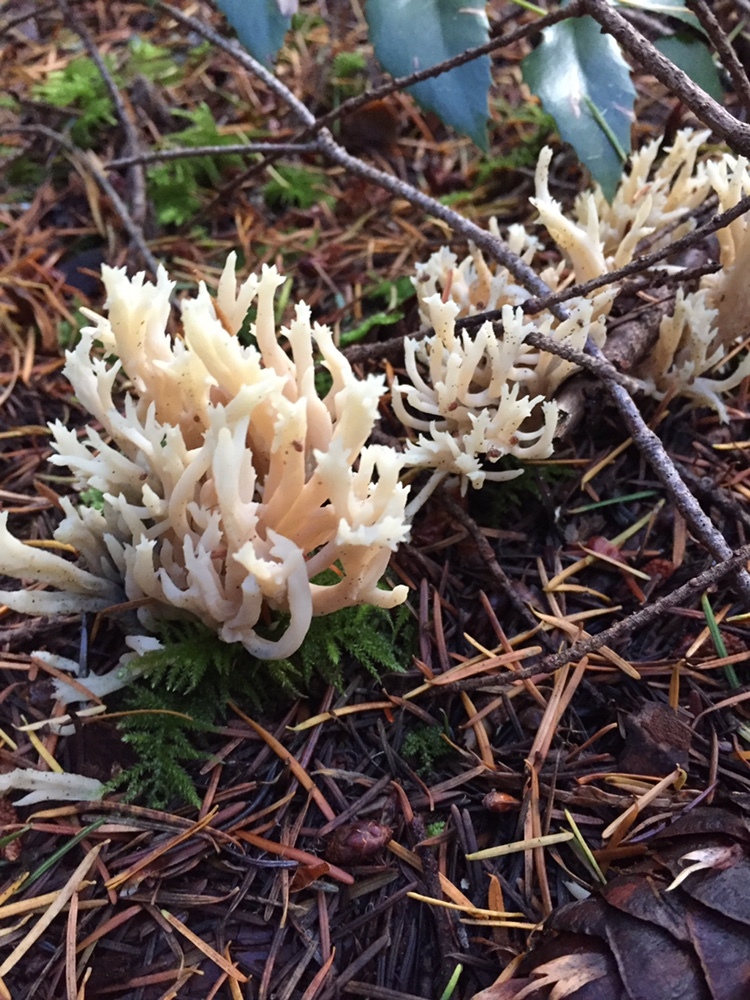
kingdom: Fungi
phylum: Basidiomycota
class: Agaricomycetes
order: Cantharellales
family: Hydnaceae
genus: Clavulina
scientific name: Clavulina coralloides
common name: Crested coral
